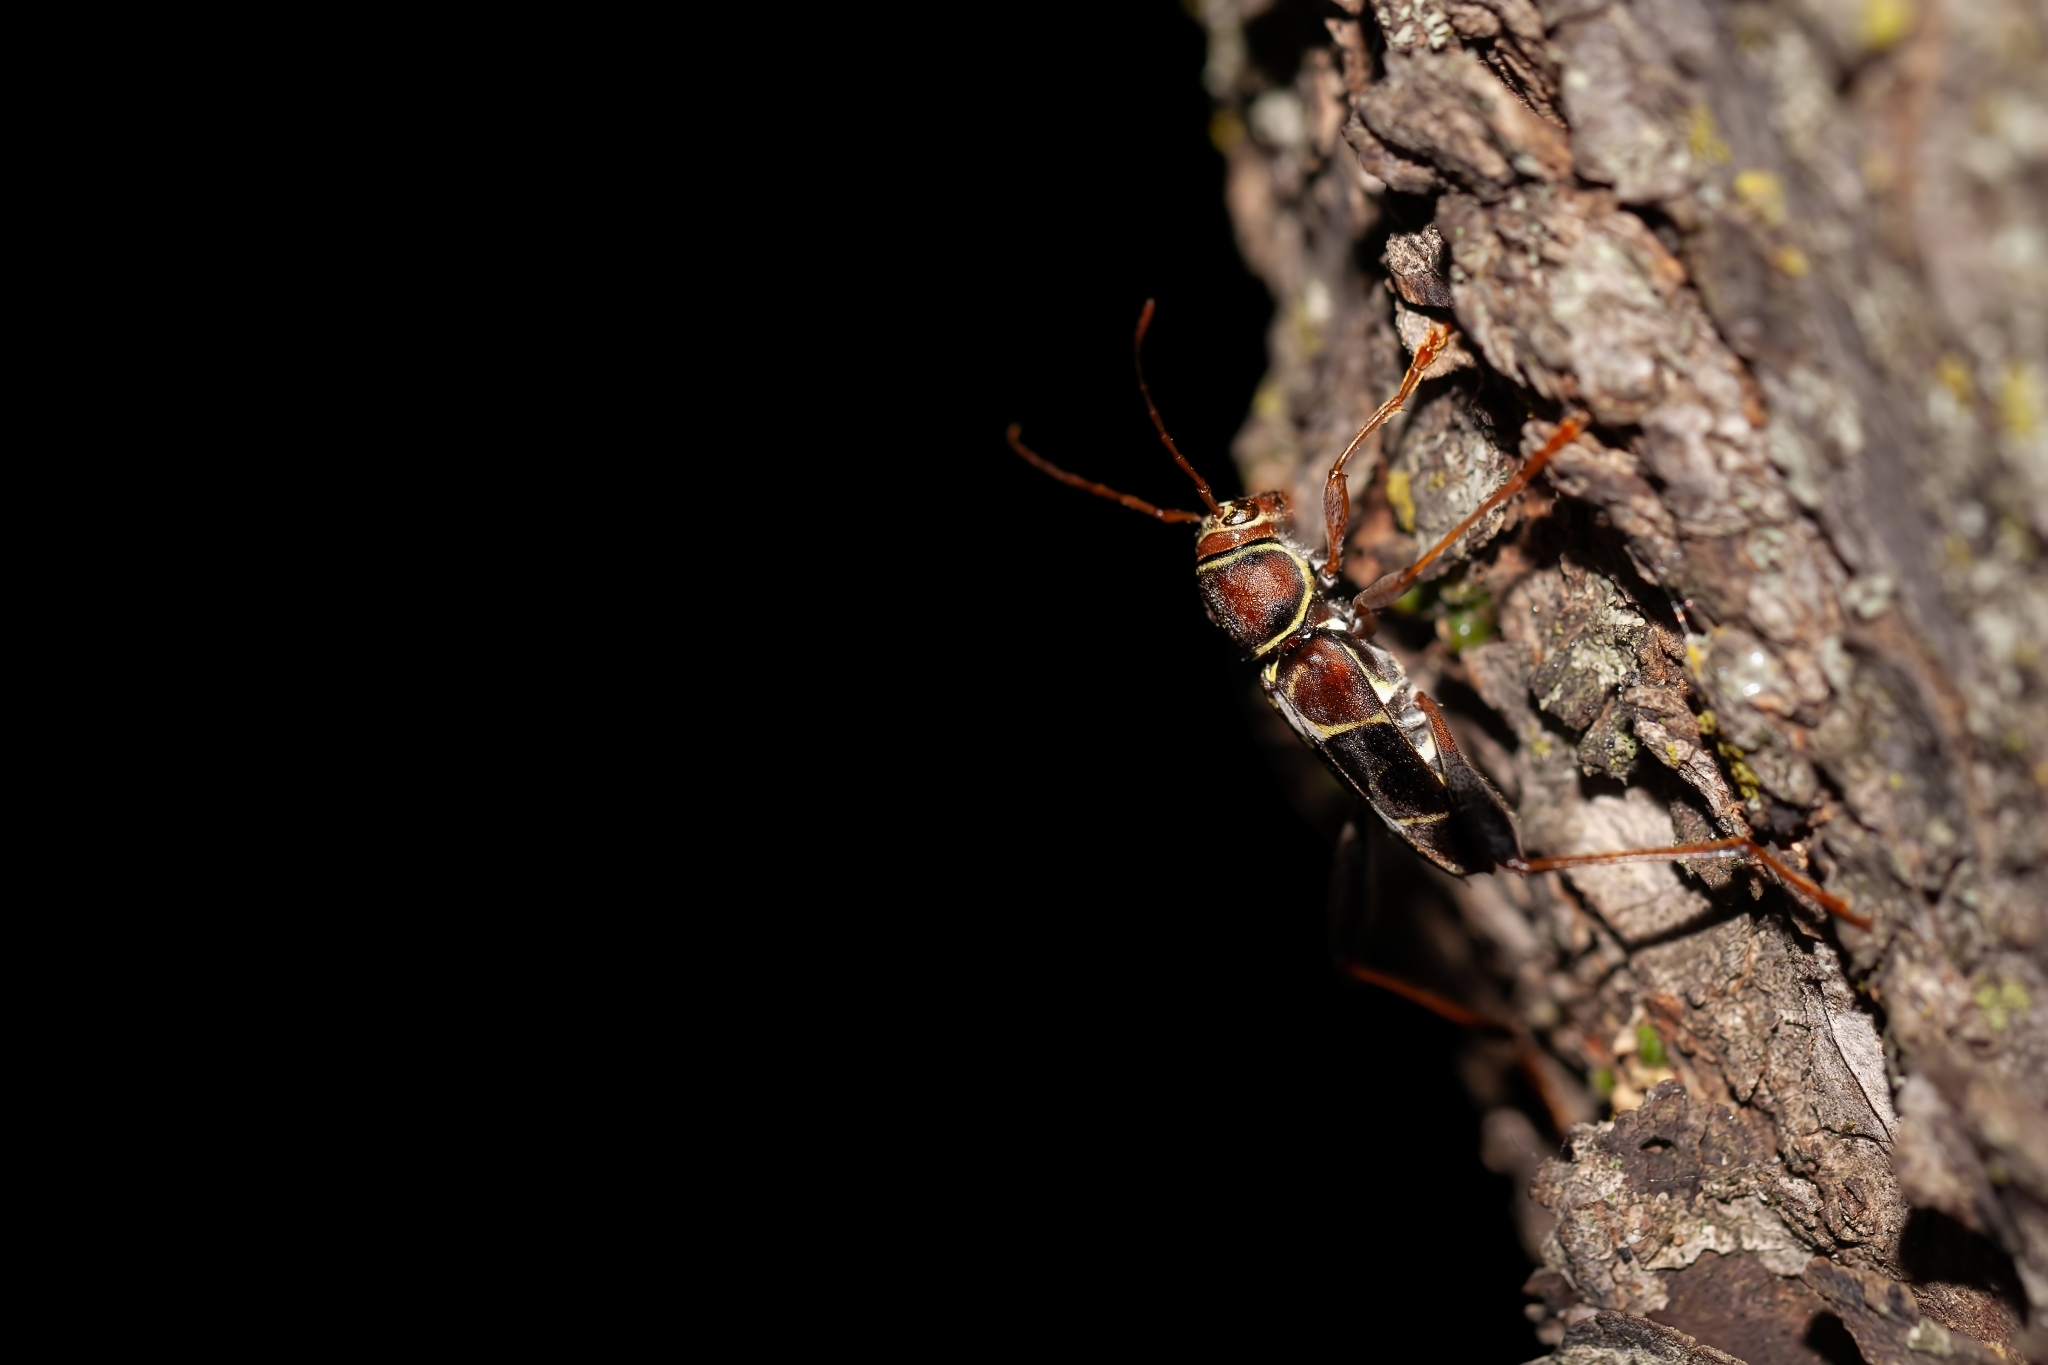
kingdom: Animalia
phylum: Arthropoda
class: Insecta
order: Coleoptera
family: Cerambycidae
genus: Neoclytus
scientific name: Neoclytus mucronatus
